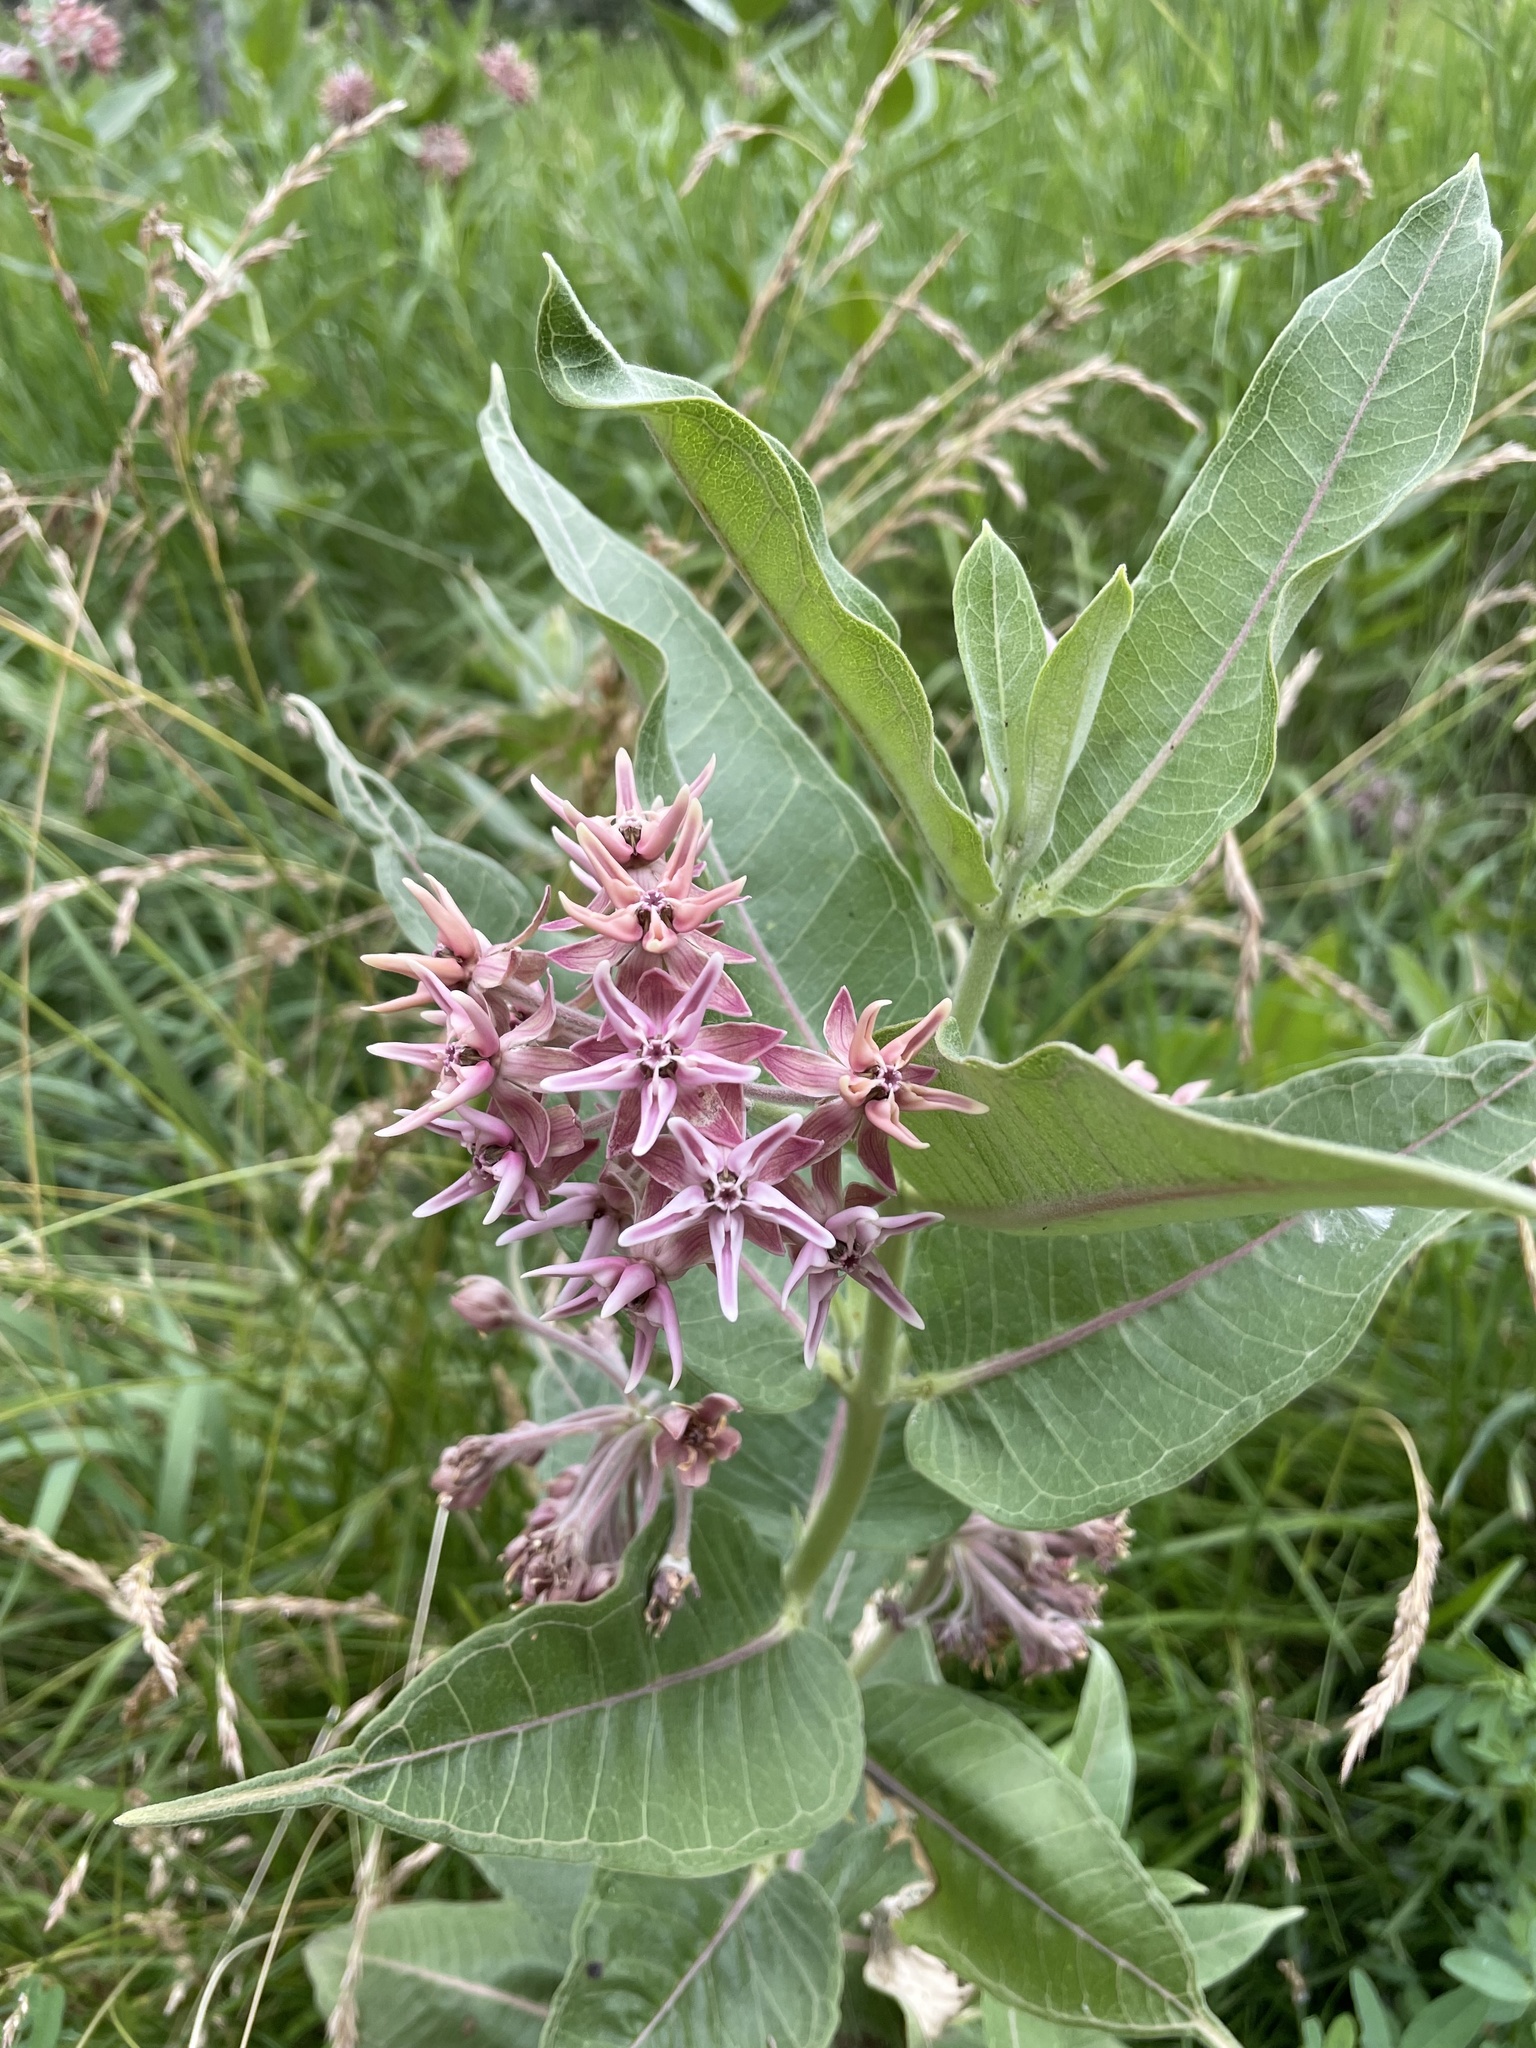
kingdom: Plantae
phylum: Tracheophyta
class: Magnoliopsida
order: Gentianales
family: Apocynaceae
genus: Asclepias
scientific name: Asclepias speciosa
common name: Showy milkweed
